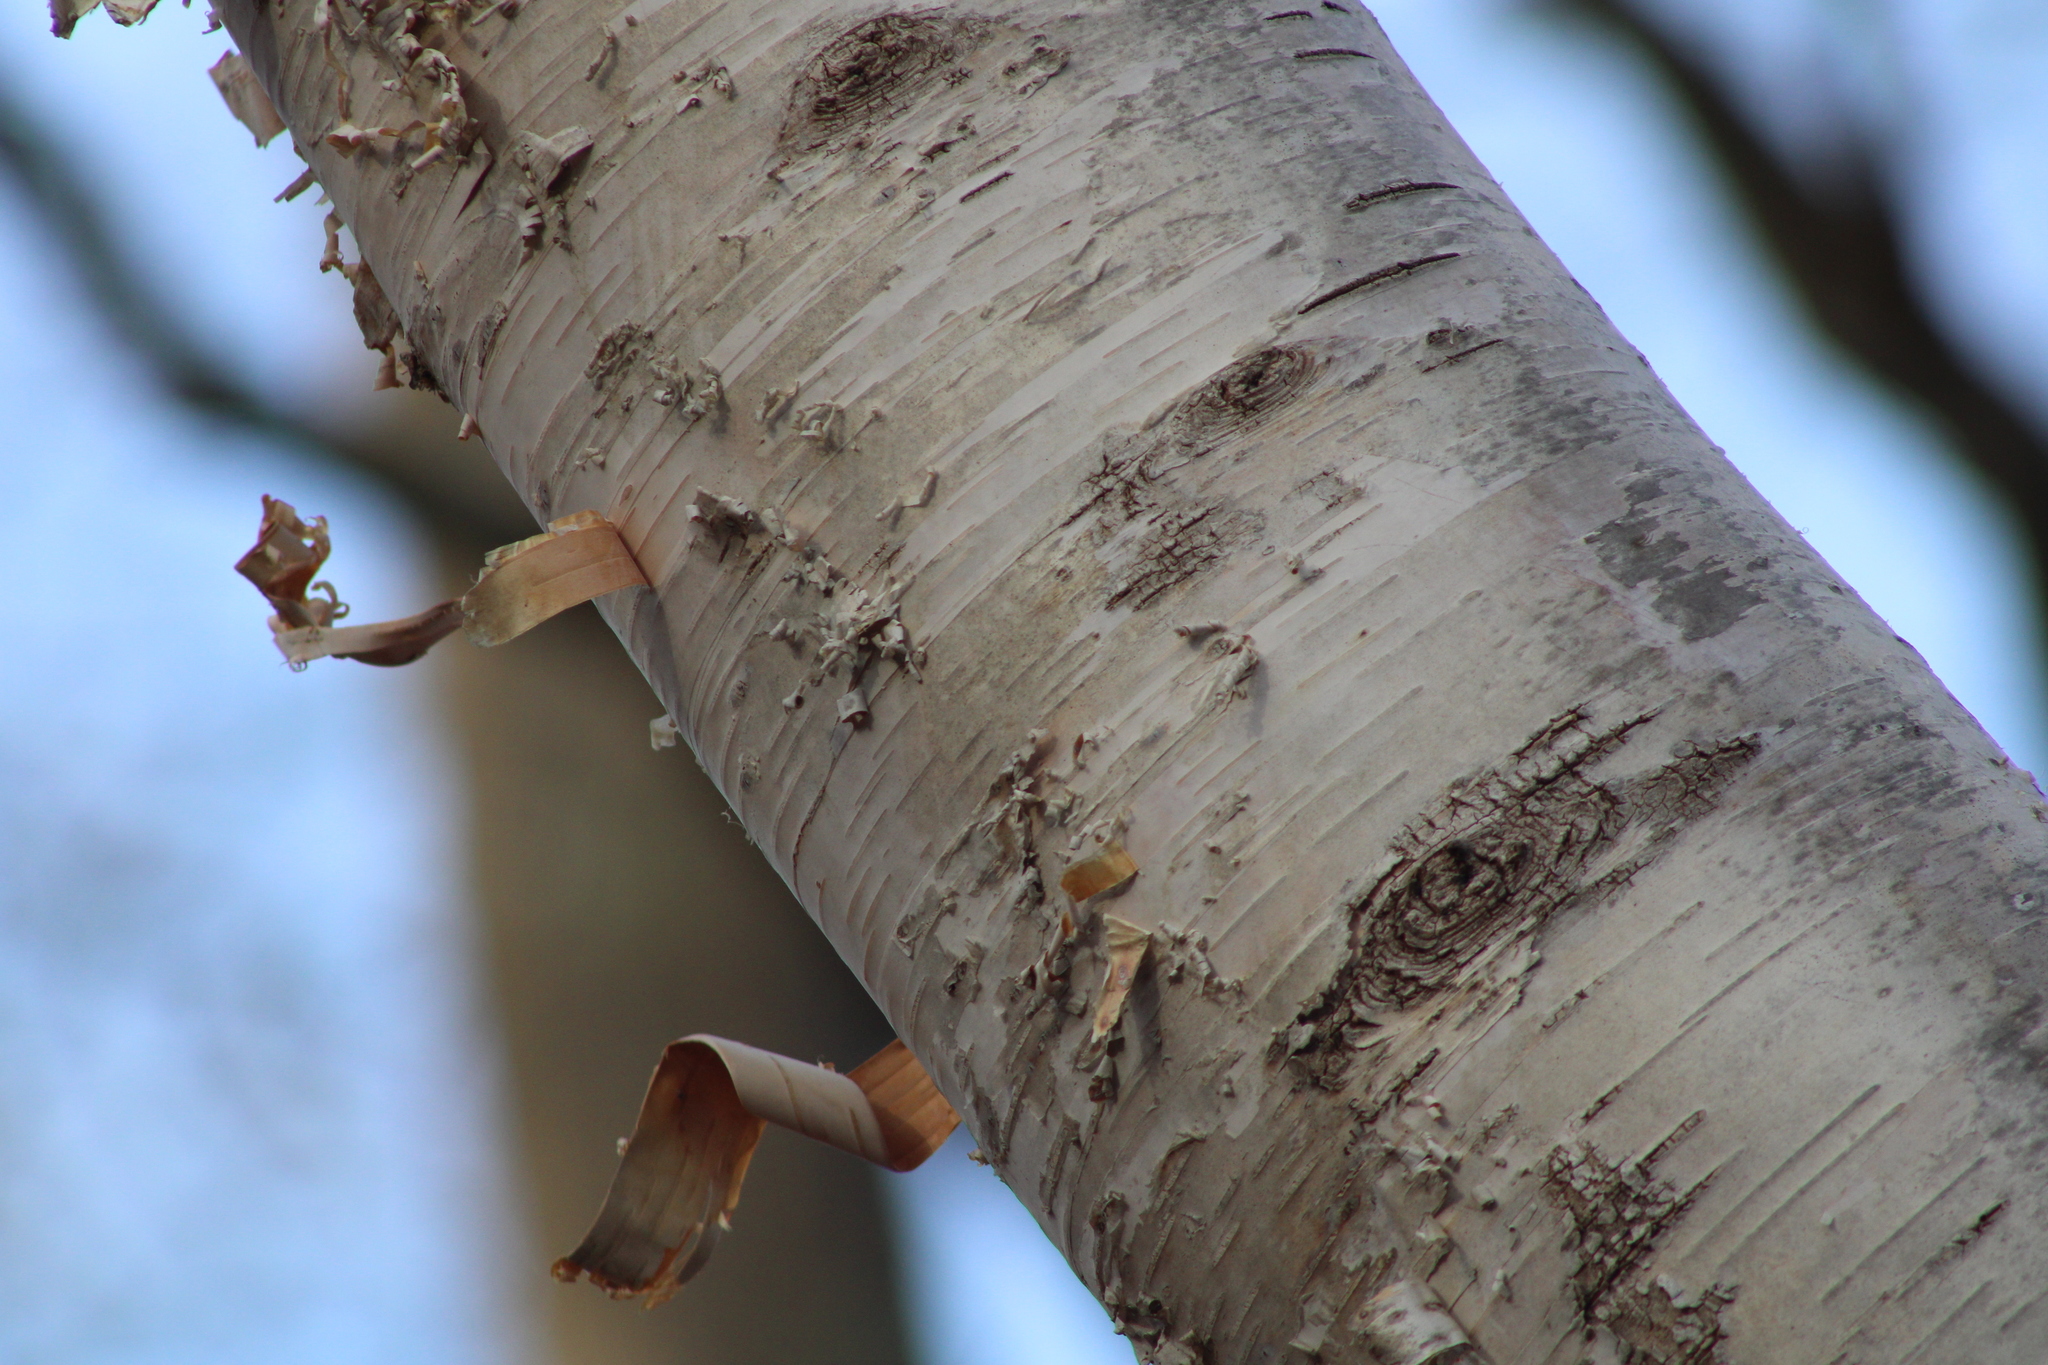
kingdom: Plantae
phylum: Tracheophyta
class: Magnoliopsida
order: Fagales
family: Betulaceae
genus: Betula
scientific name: Betula papyrifera
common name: Paper birch
